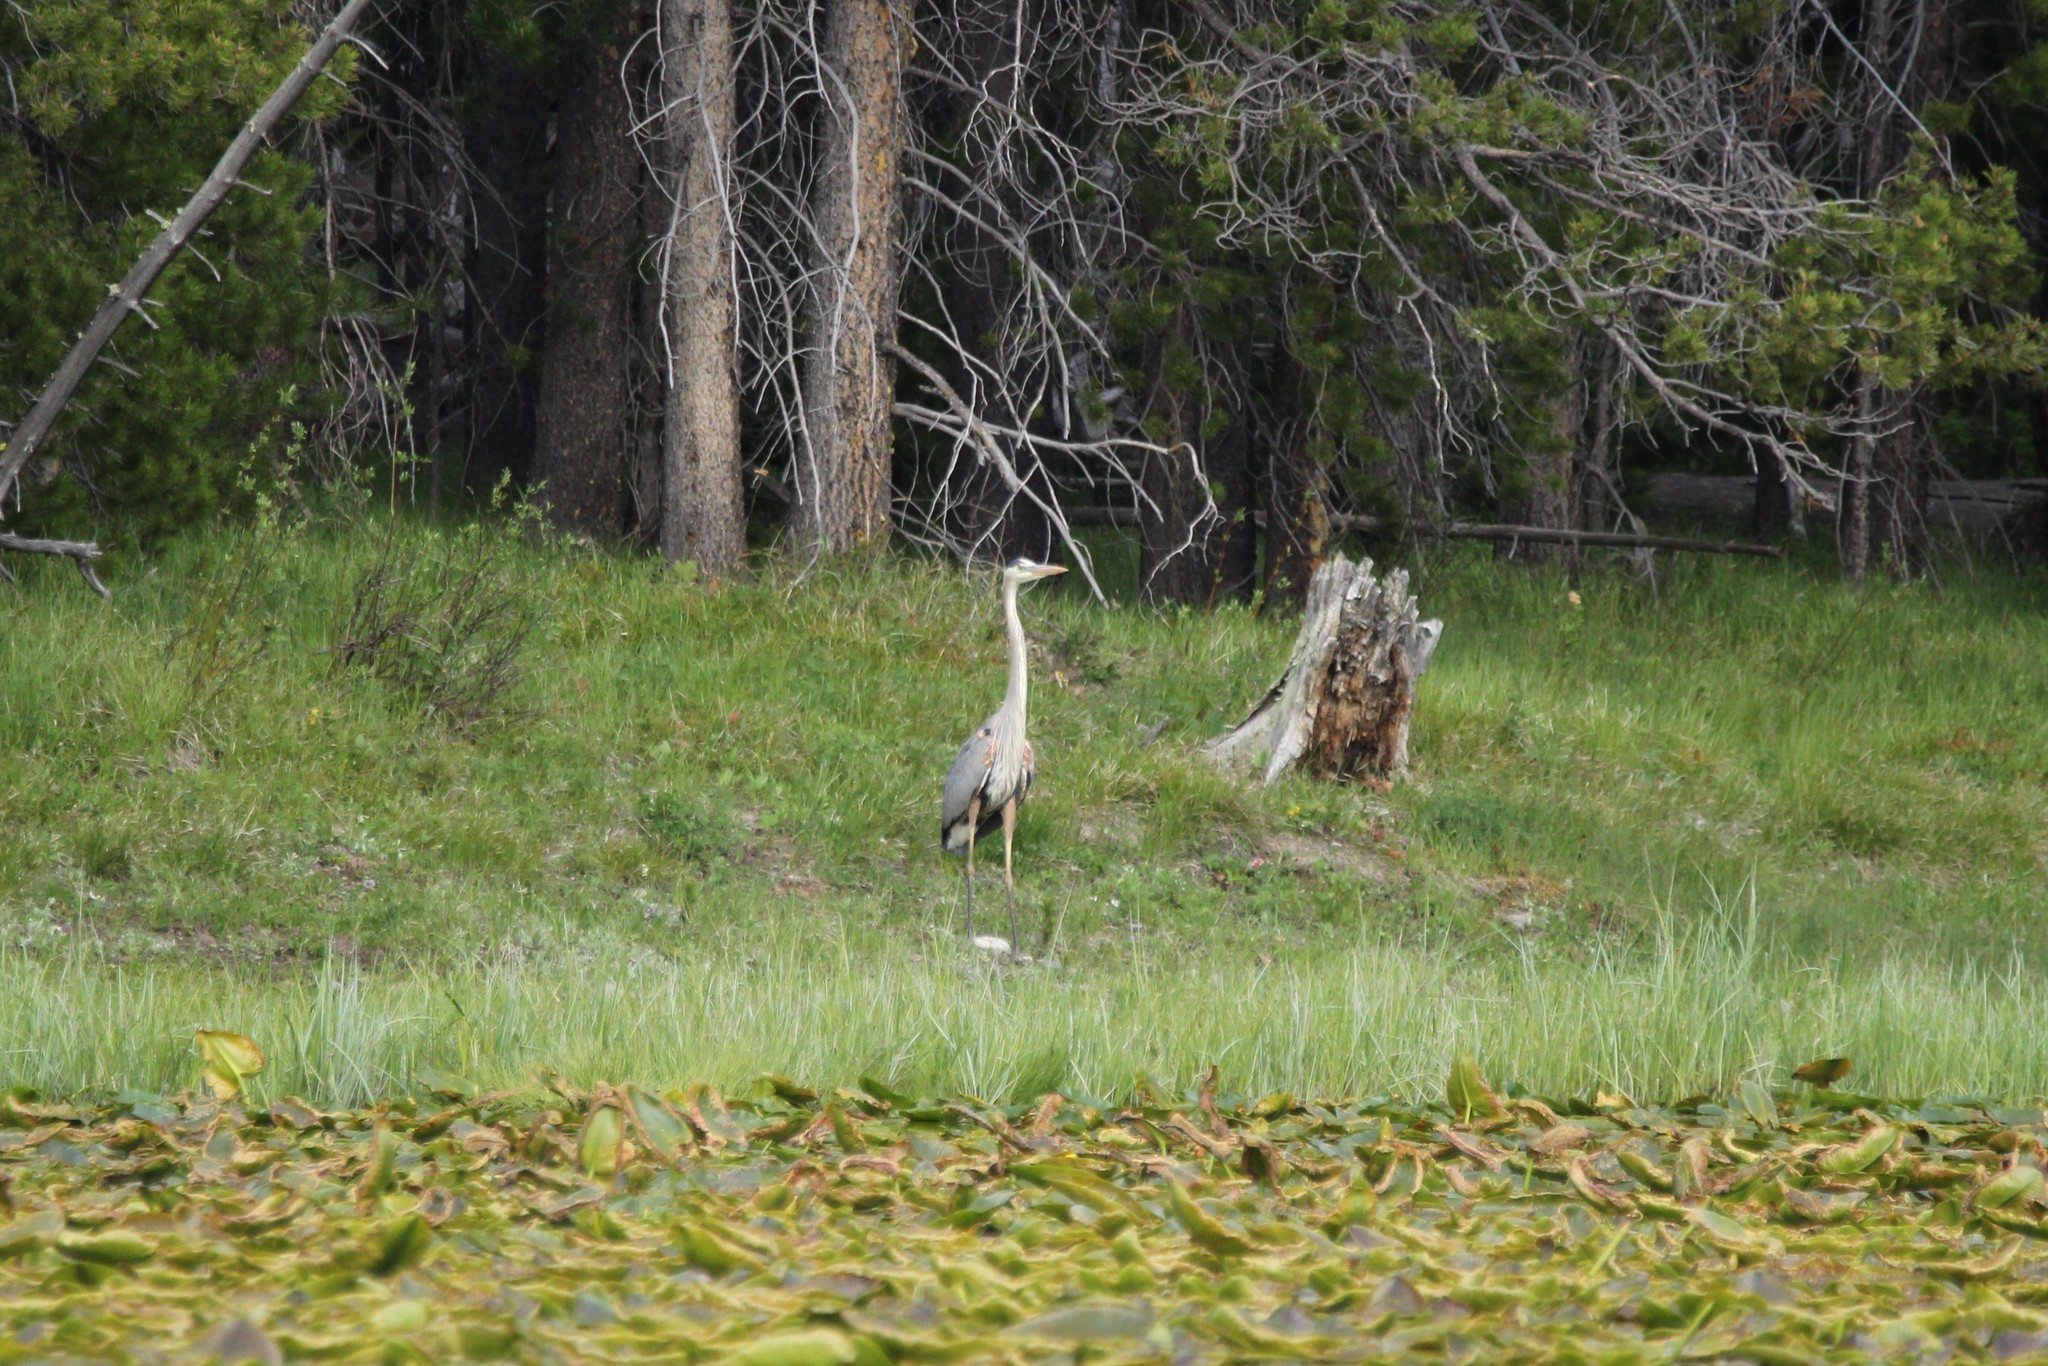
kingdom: Animalia
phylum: Chordata
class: Aves
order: Pelecaniformes
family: Ardeidae
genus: Ardea
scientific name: Ardea herodias
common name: Great blue heron
